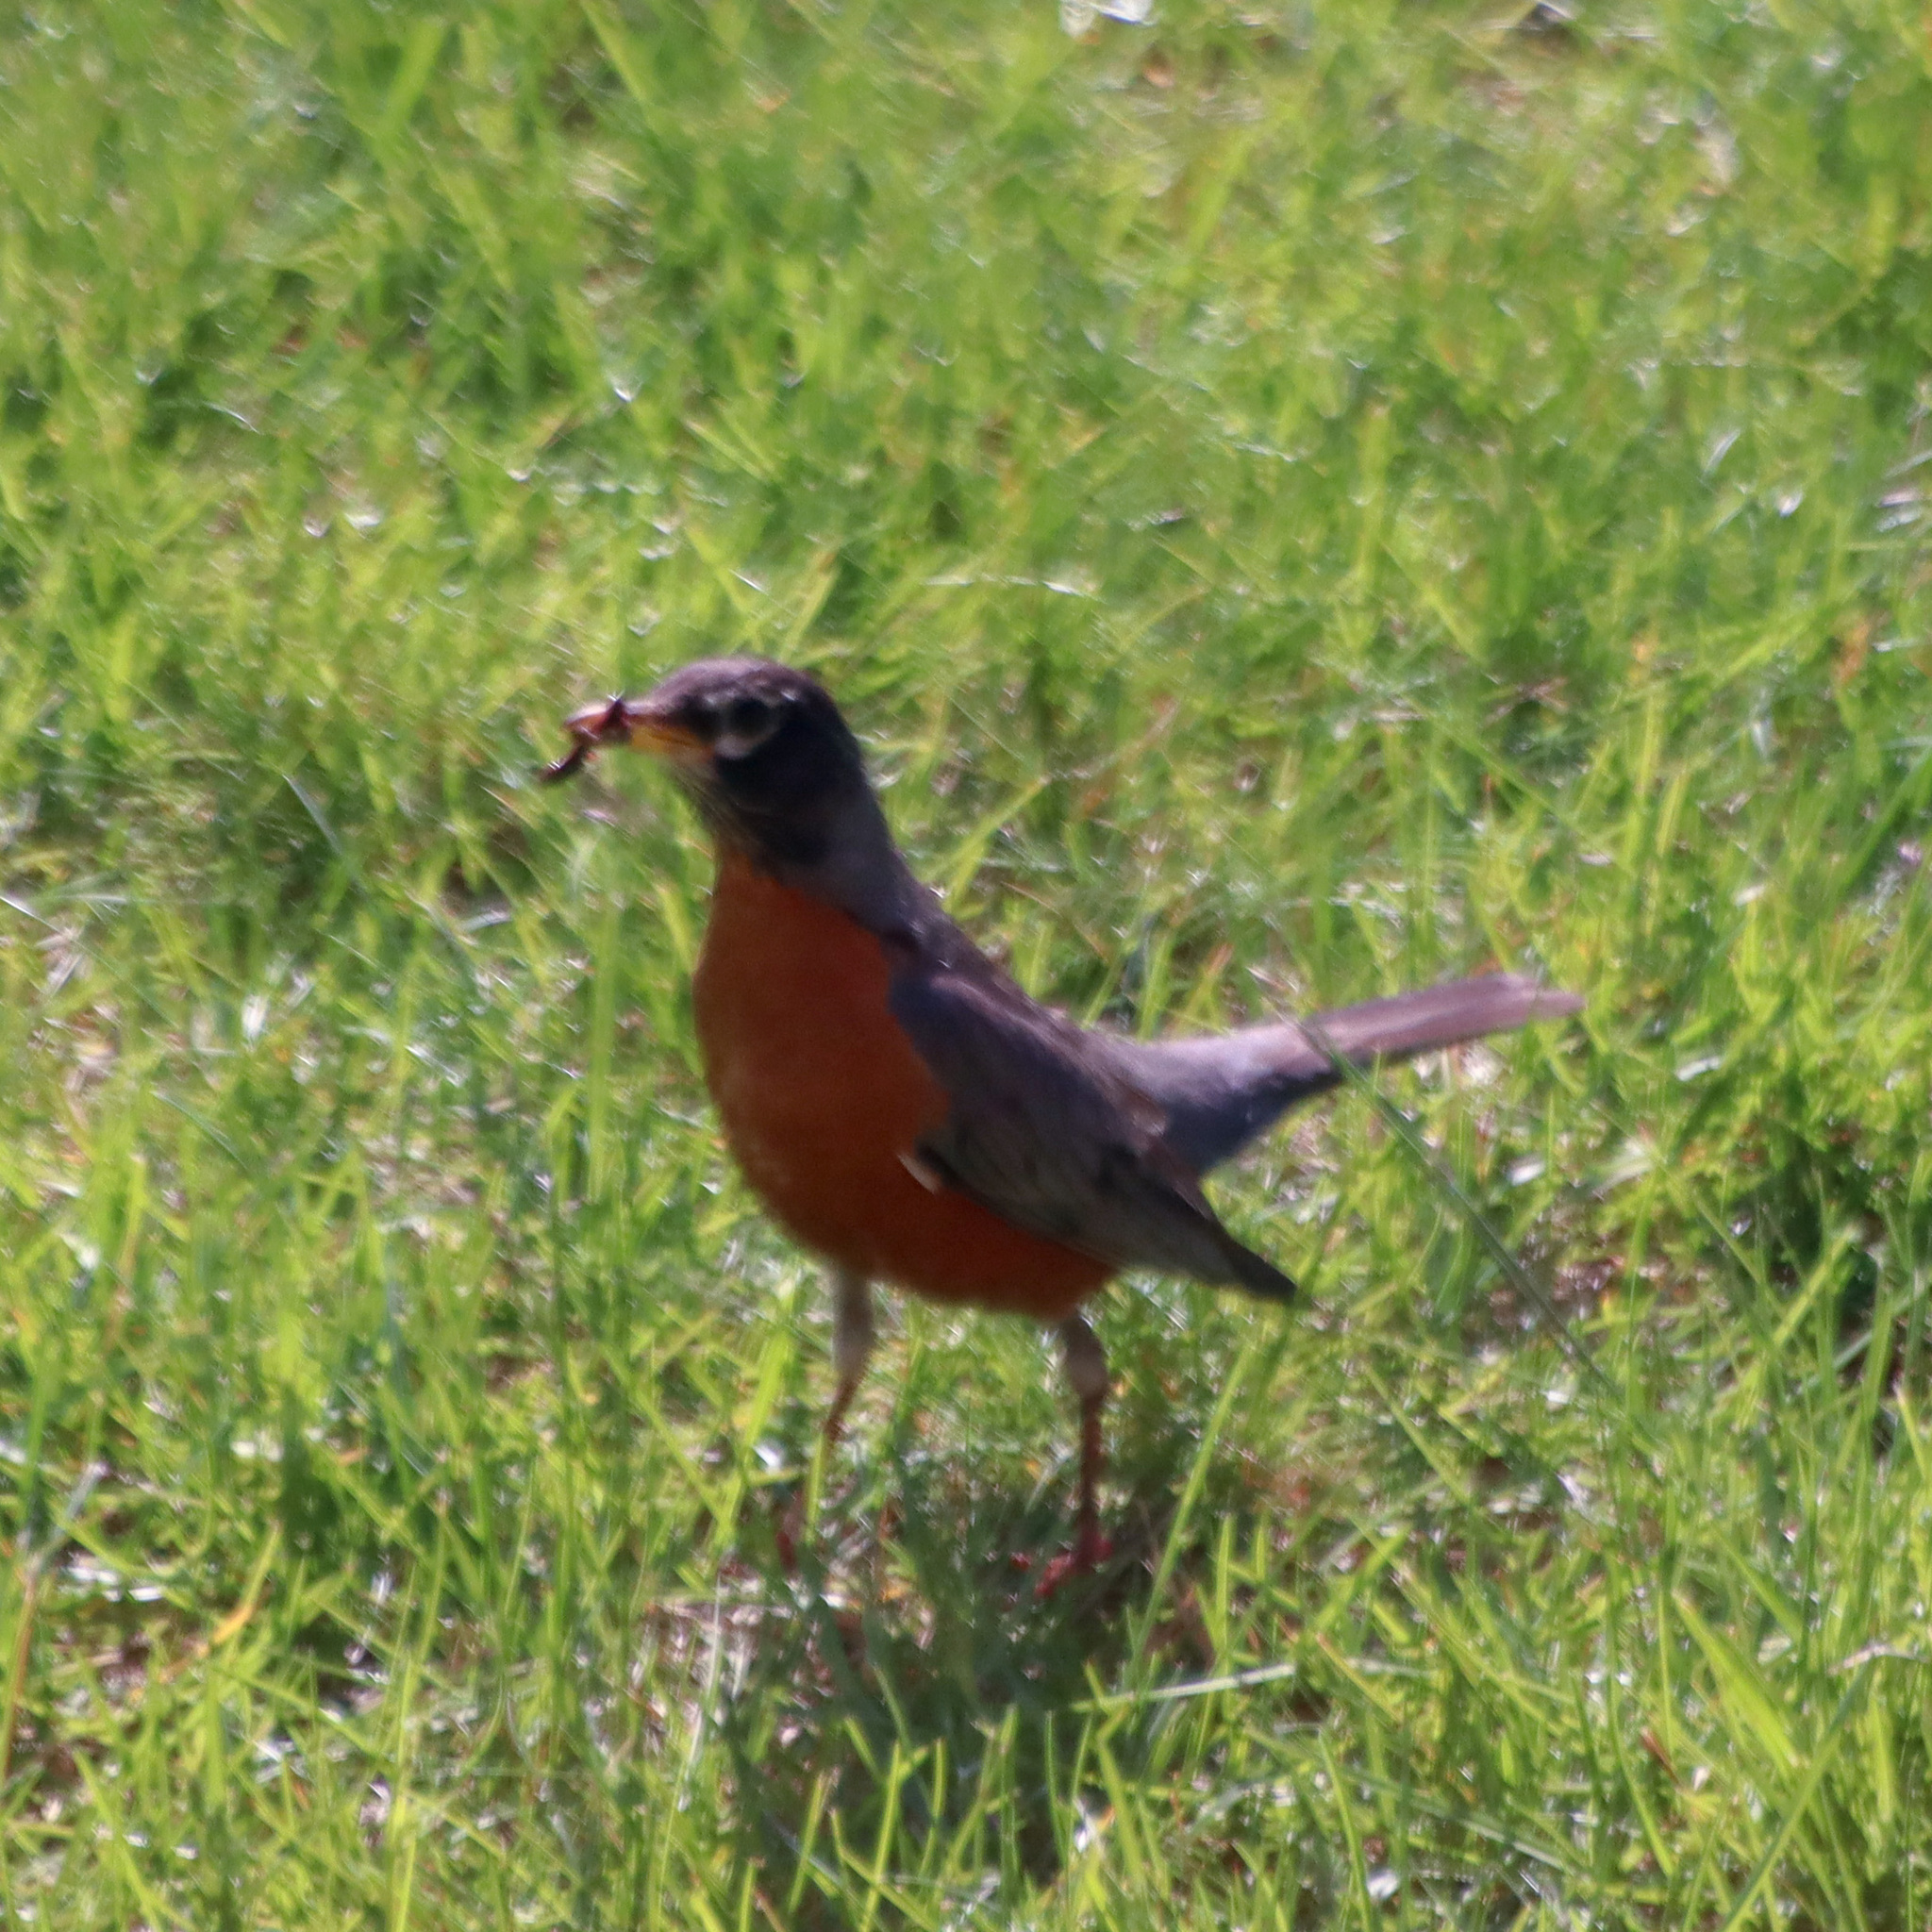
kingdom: Animalia
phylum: Chordata
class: Aves
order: Passeriformes
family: Turdidae
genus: Turdus
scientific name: Turdus migratorius
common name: American robin
